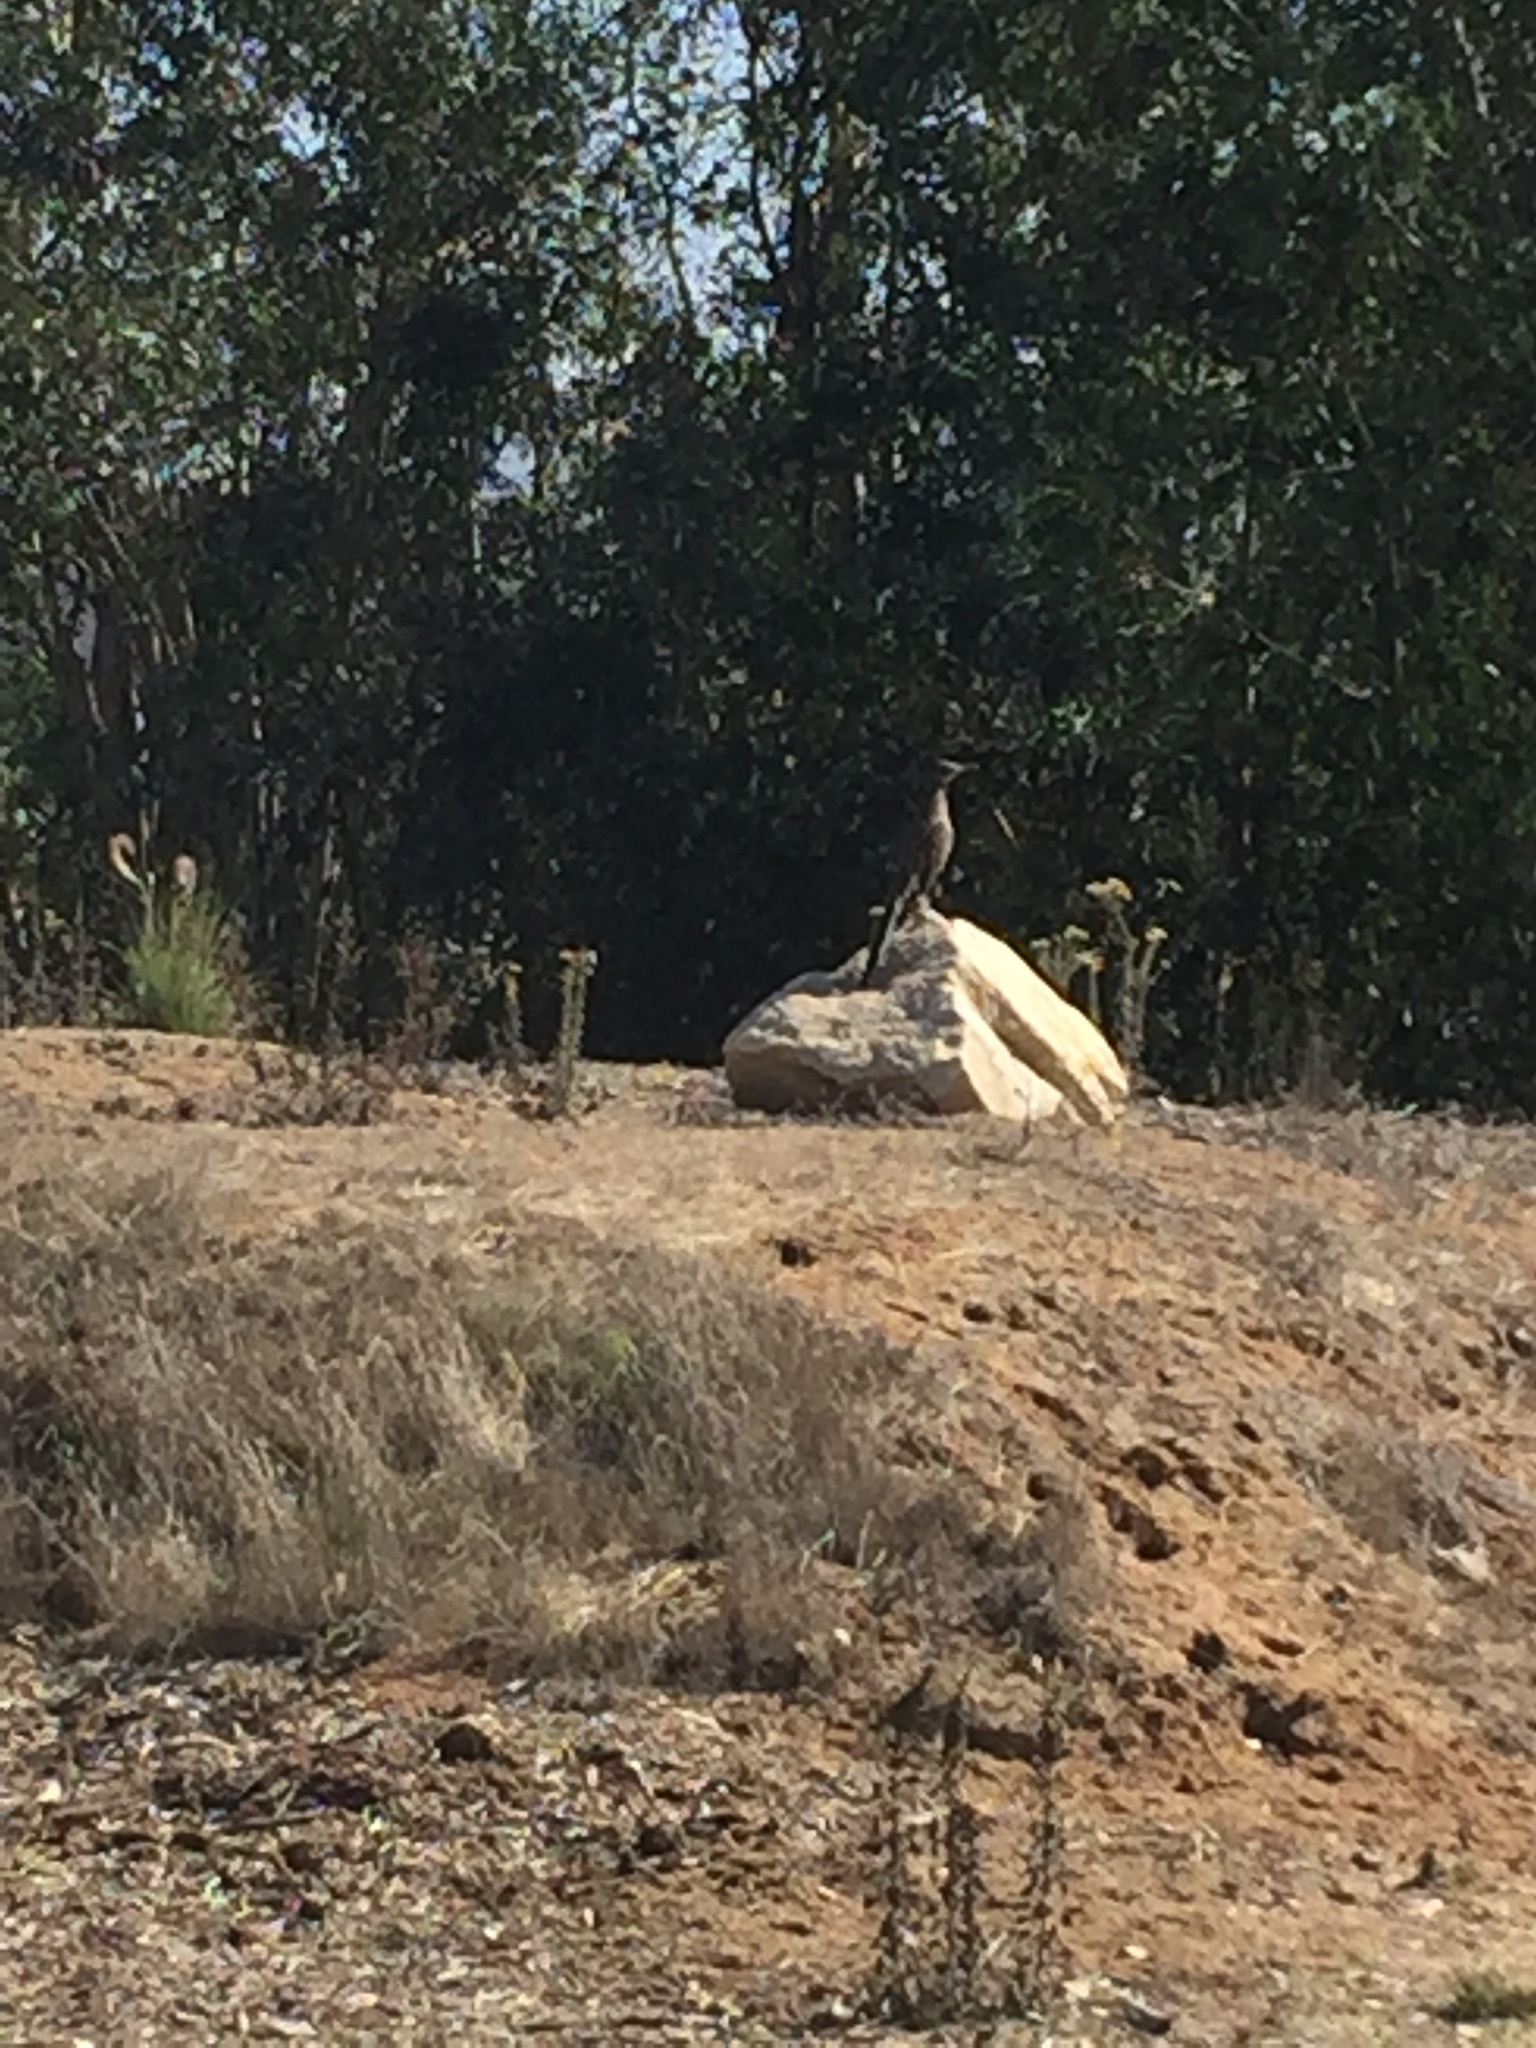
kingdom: Animalia
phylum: Chordata
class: Aves
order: Cuculiformes
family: Cuculidae
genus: Geococcyx
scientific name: Geococcyx californianus
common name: Greater roadrunner
